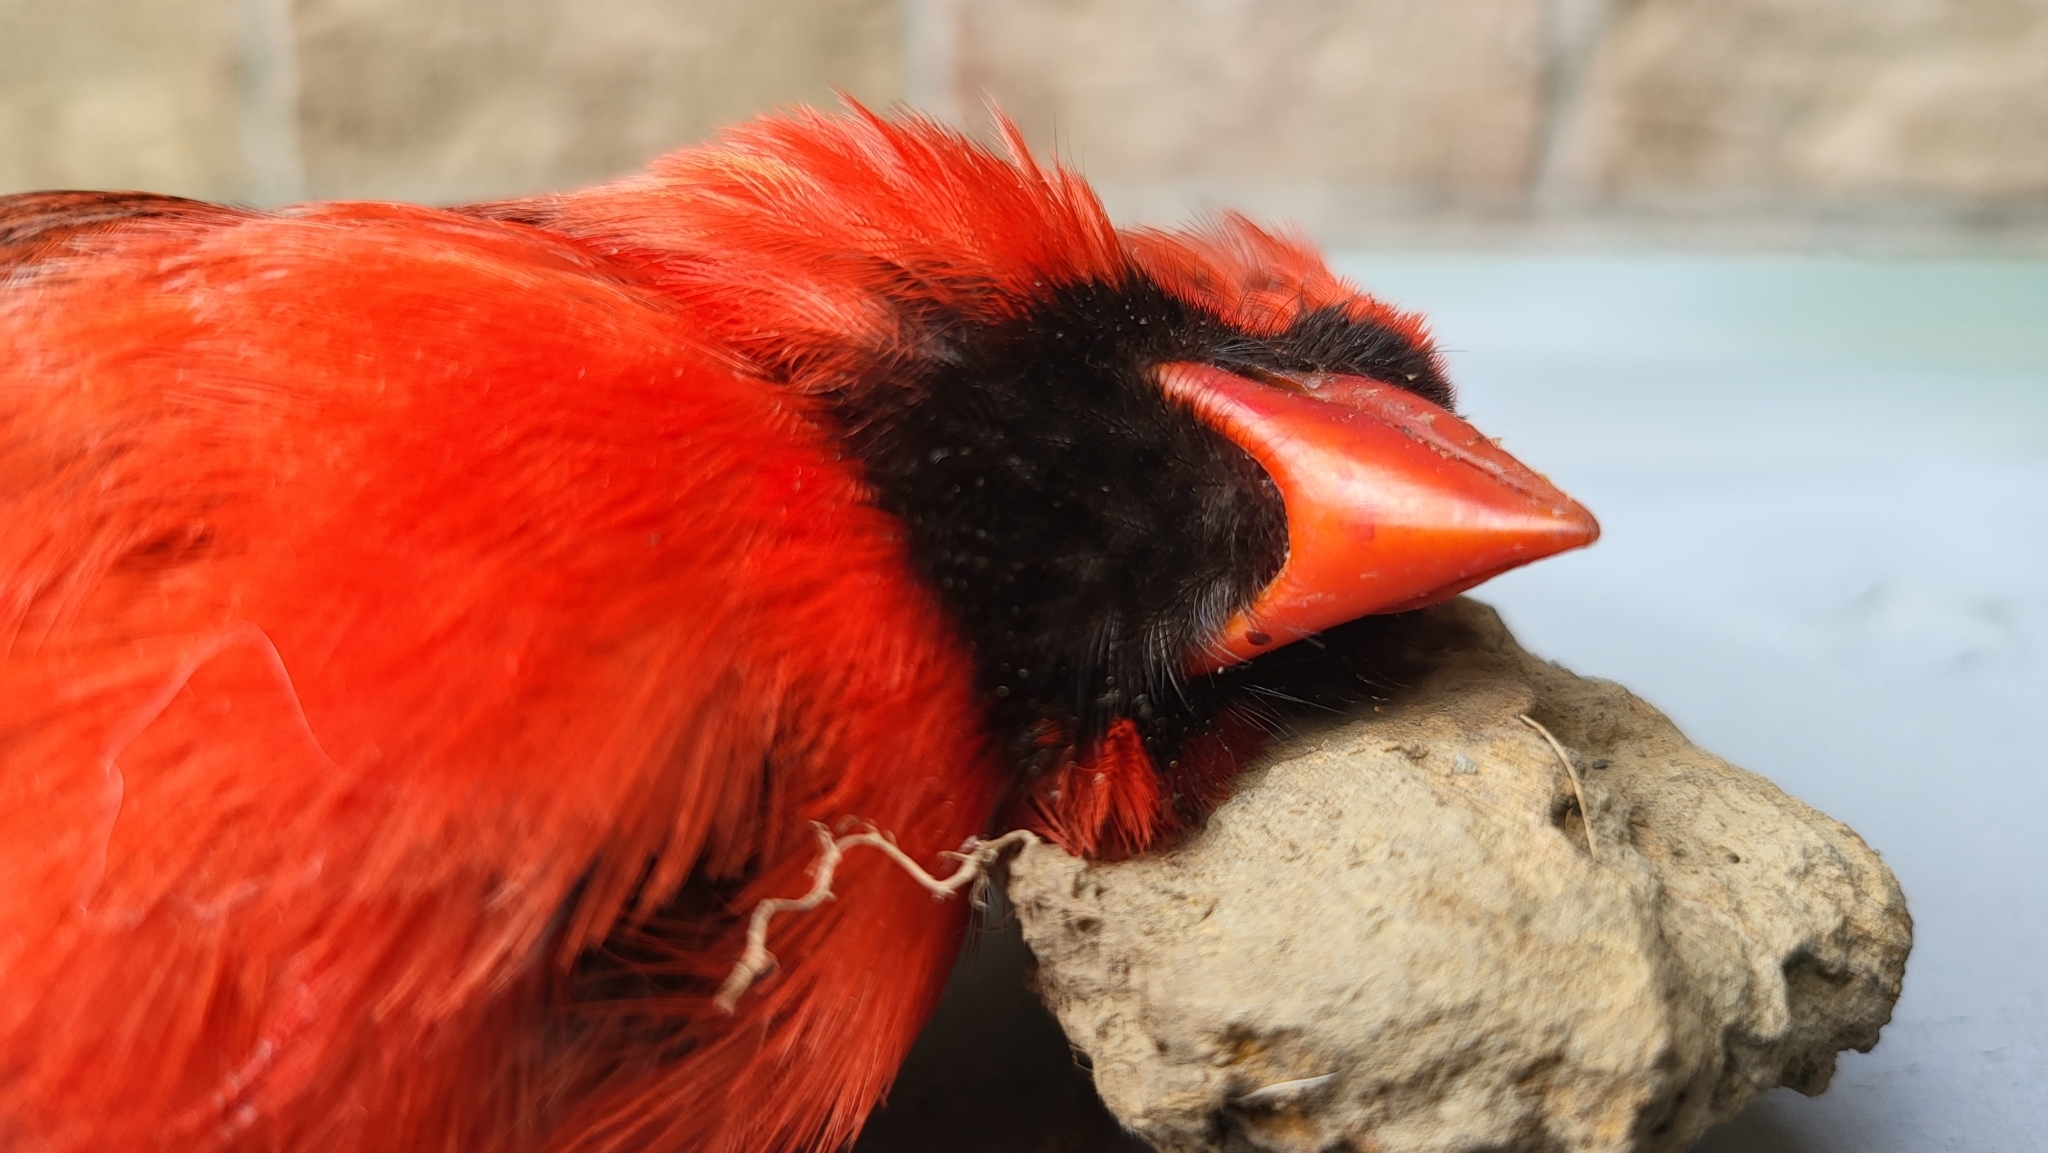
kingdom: Animalia
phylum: Chordata
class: Aves
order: Passeriformes
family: Cardinalidae
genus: Cardinalis
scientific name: Cardinalis cardinalis
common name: Northern cardinal
